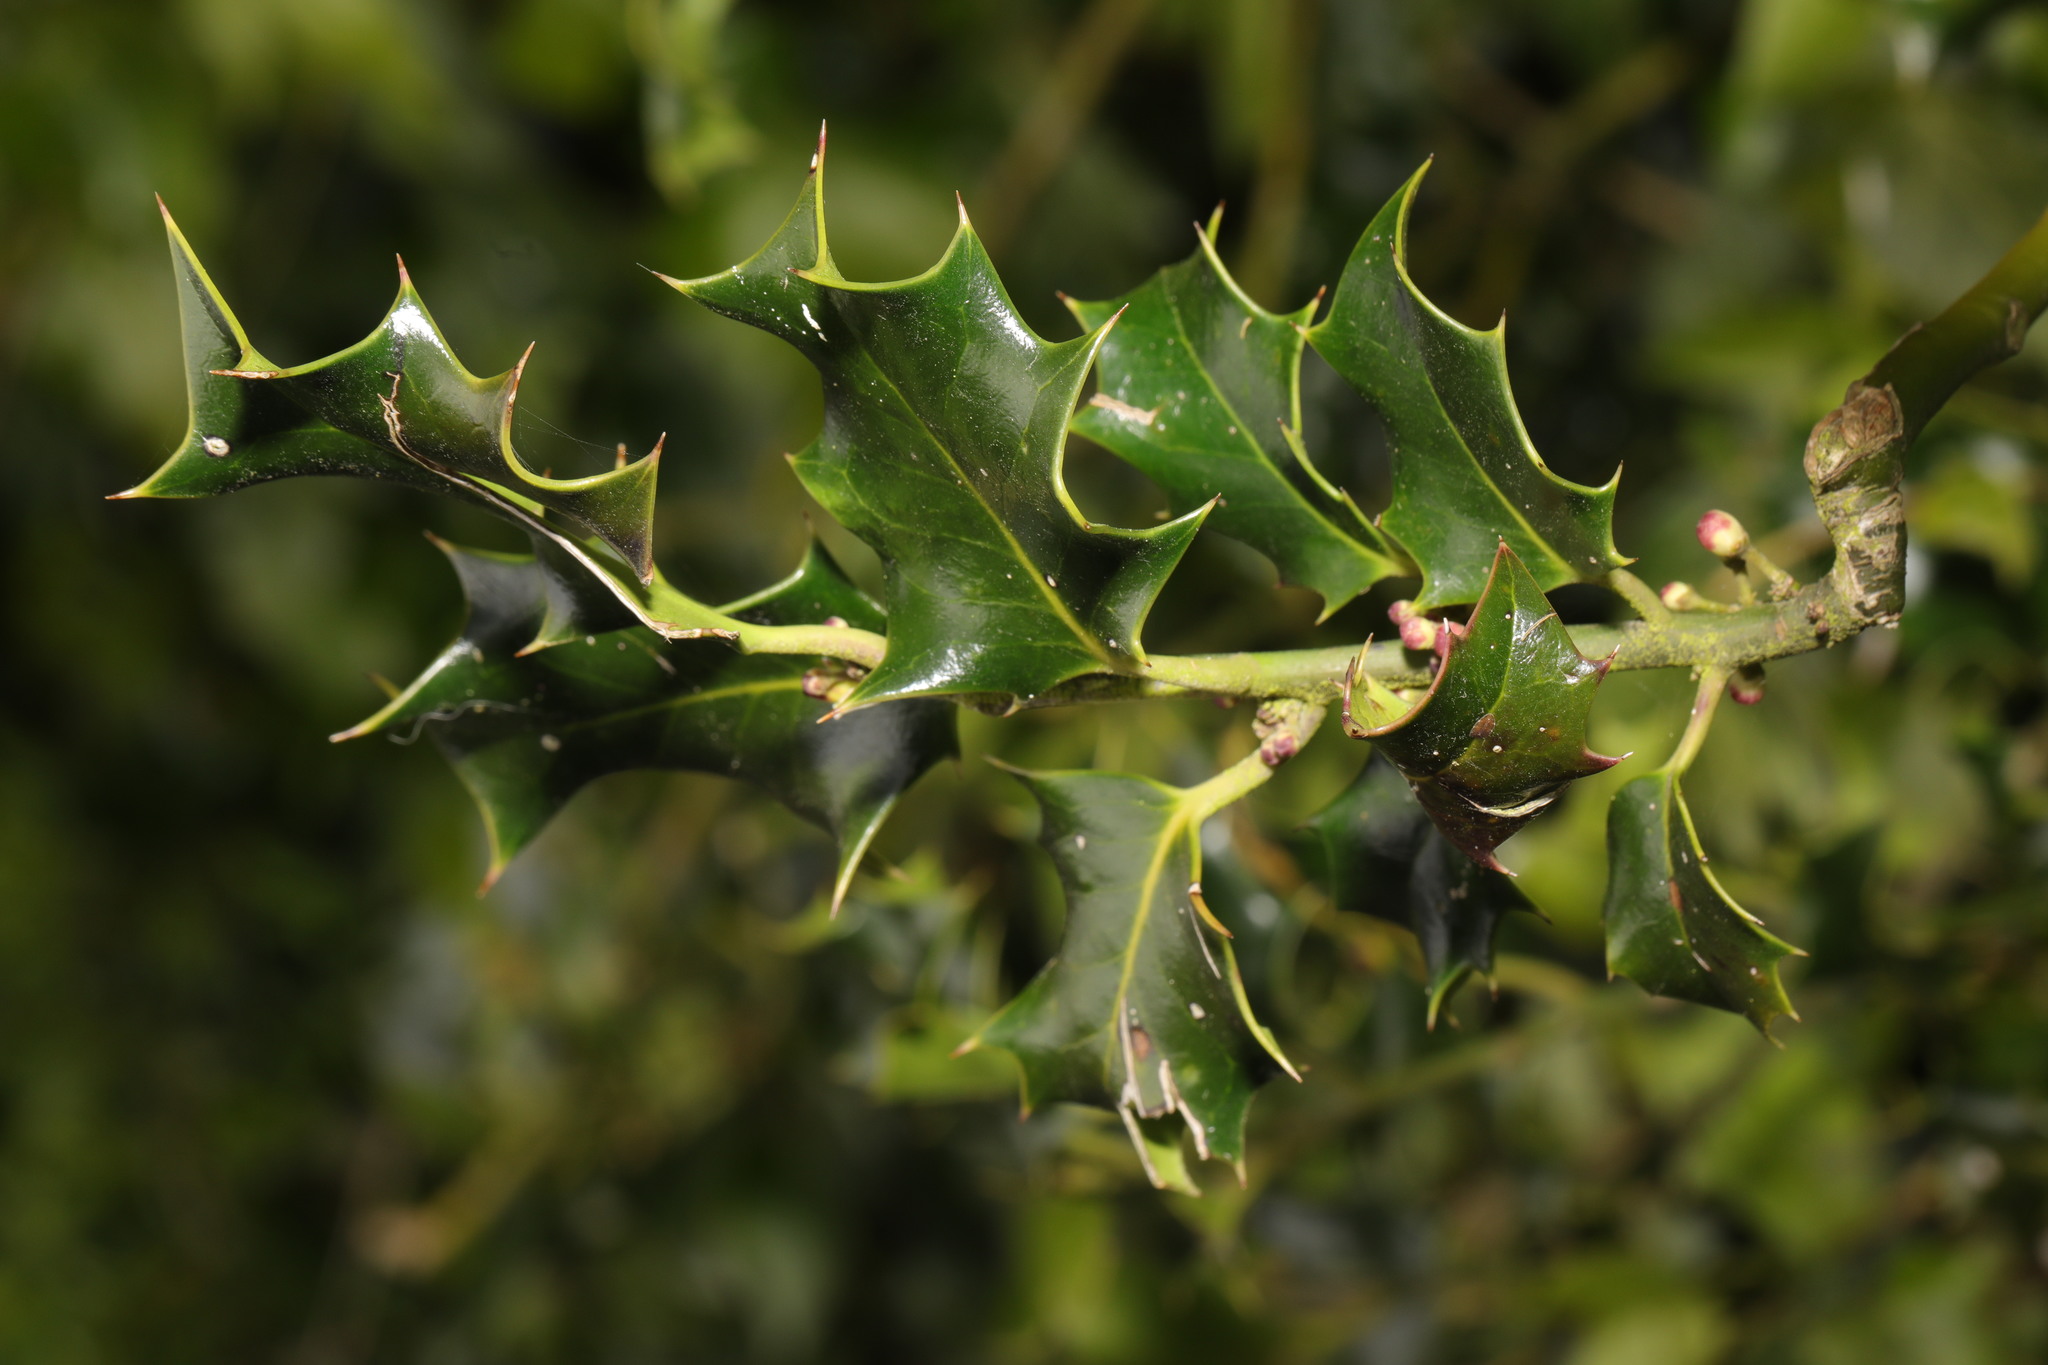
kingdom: Plantae
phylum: Tracheophyta
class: Magnoliopsida
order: Aquifoliales
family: Aquifoliaceae
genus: Ilex
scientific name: Ilex aquifolium
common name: English holly
